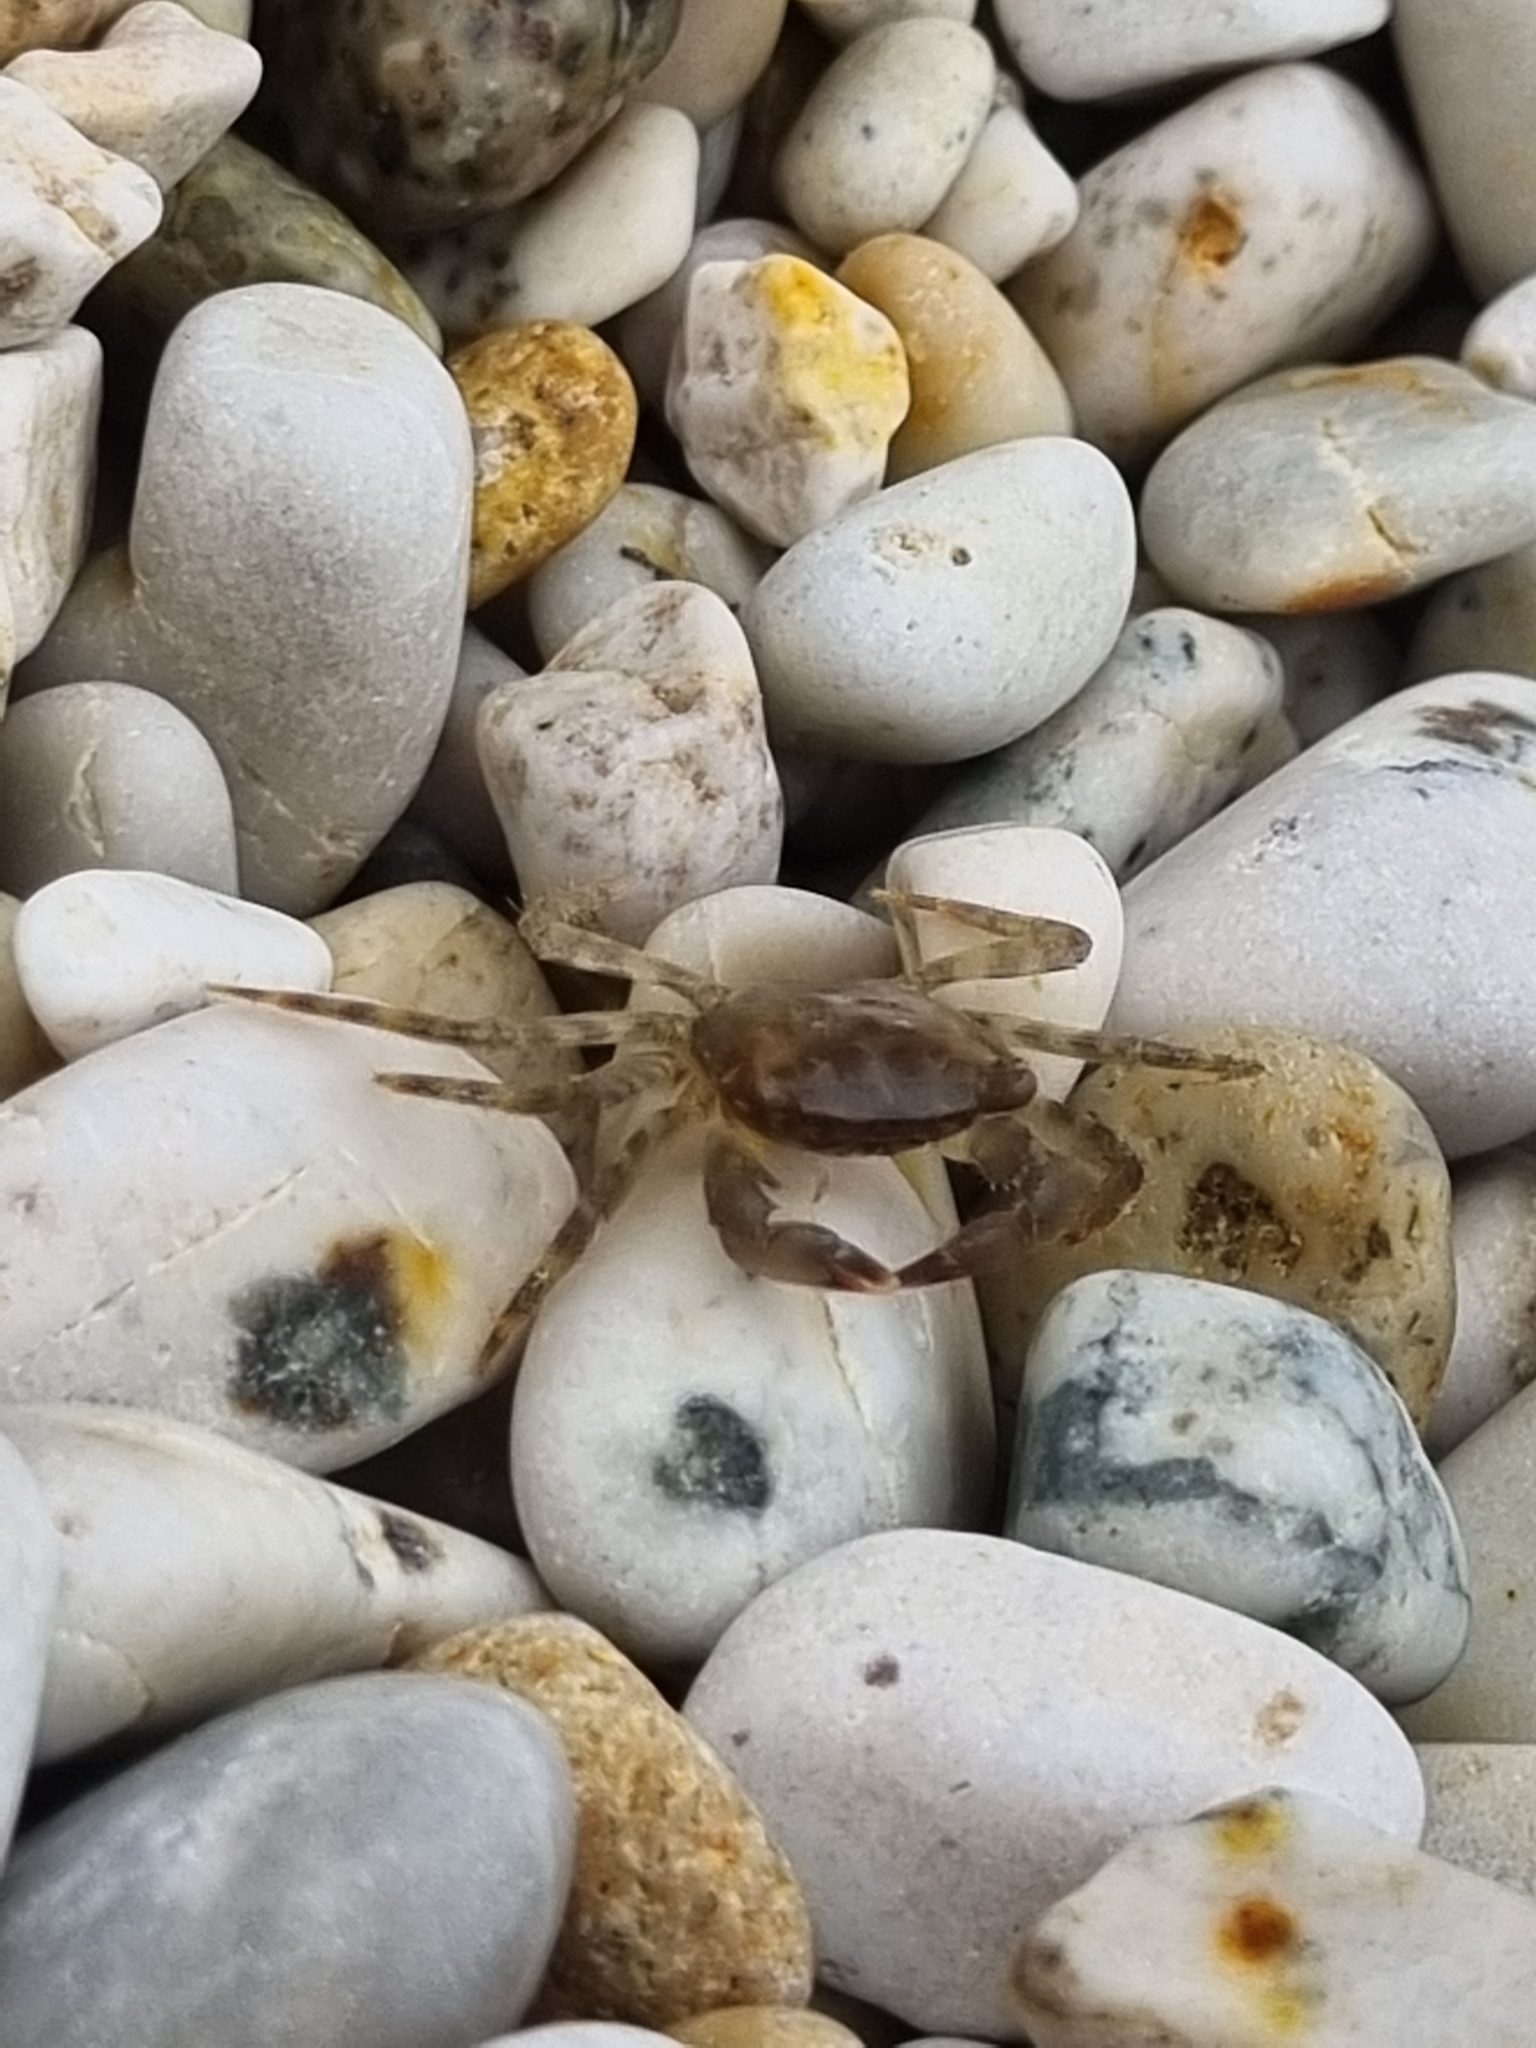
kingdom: Animalia
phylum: Arthropoda
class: Malacostraca
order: Decapoda
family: Grapsidae
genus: Pachygrapsus
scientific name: Pachygrapsus marmoratus
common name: Marbled rock crab
